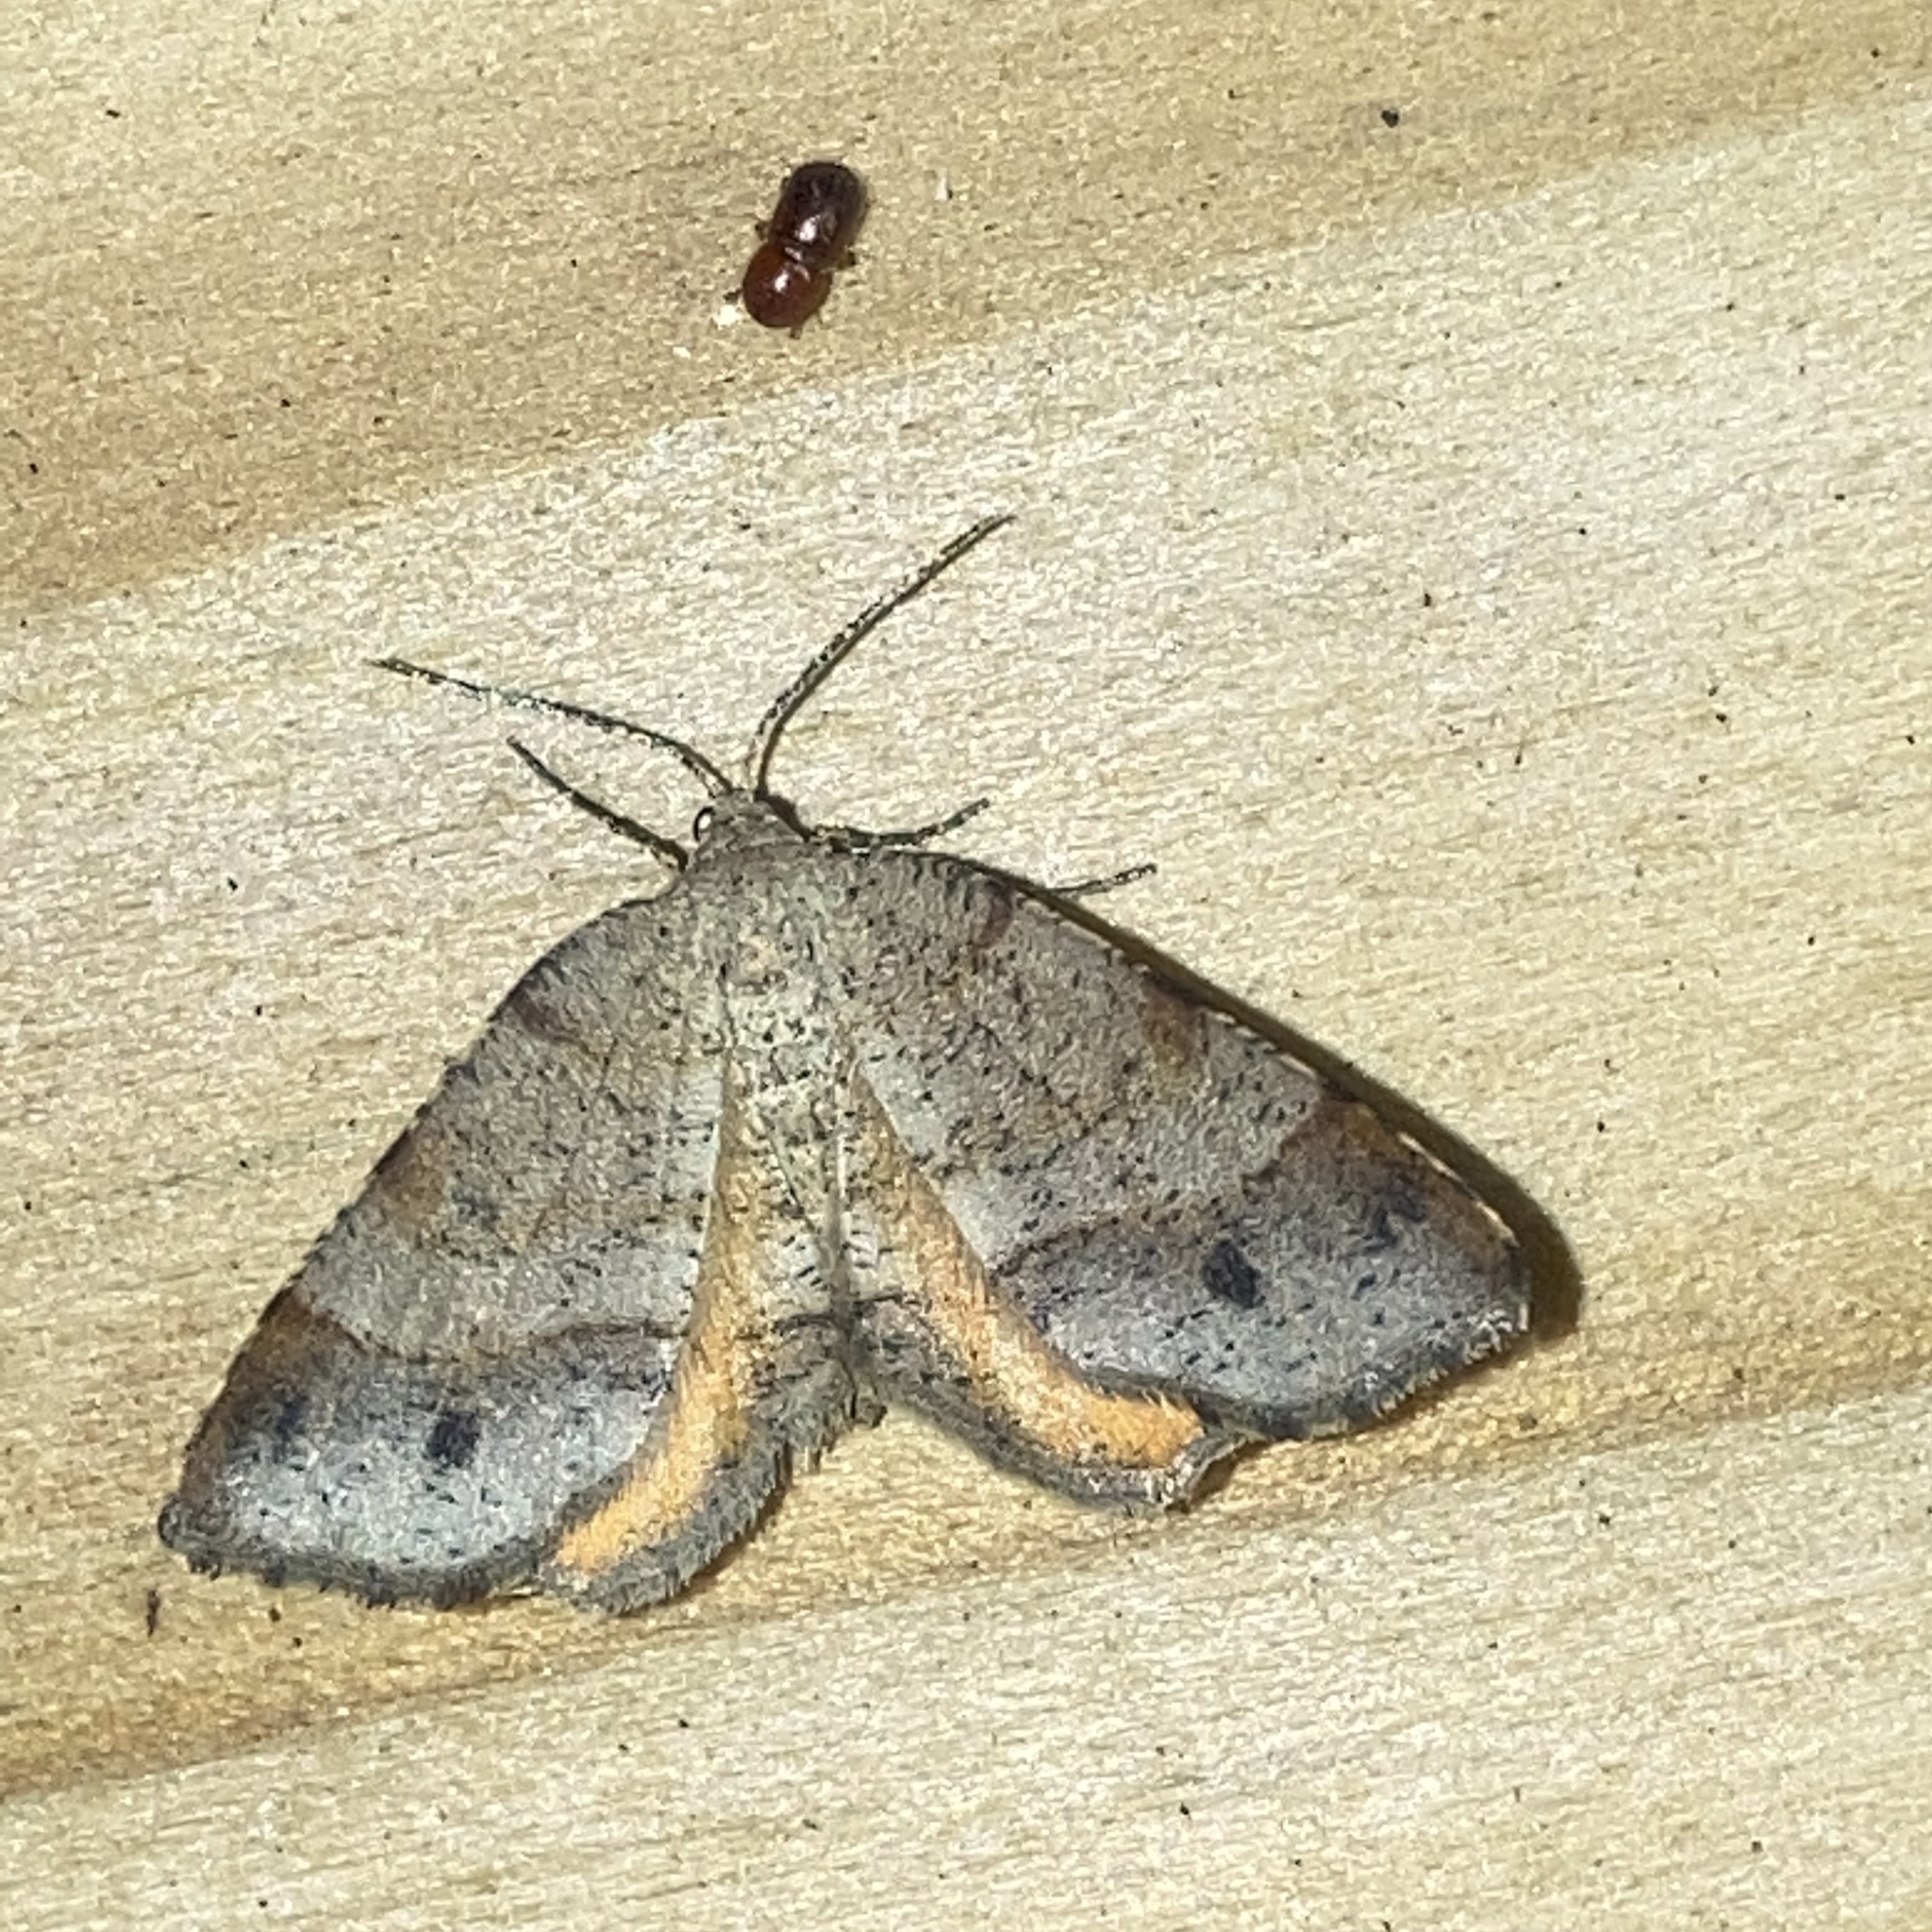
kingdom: Animalia
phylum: Arthropoda
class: Insecta
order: Lepidoptera
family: Geometridae
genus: Mellilla
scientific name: Mellilla xanthometata
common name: Orange wing moth
